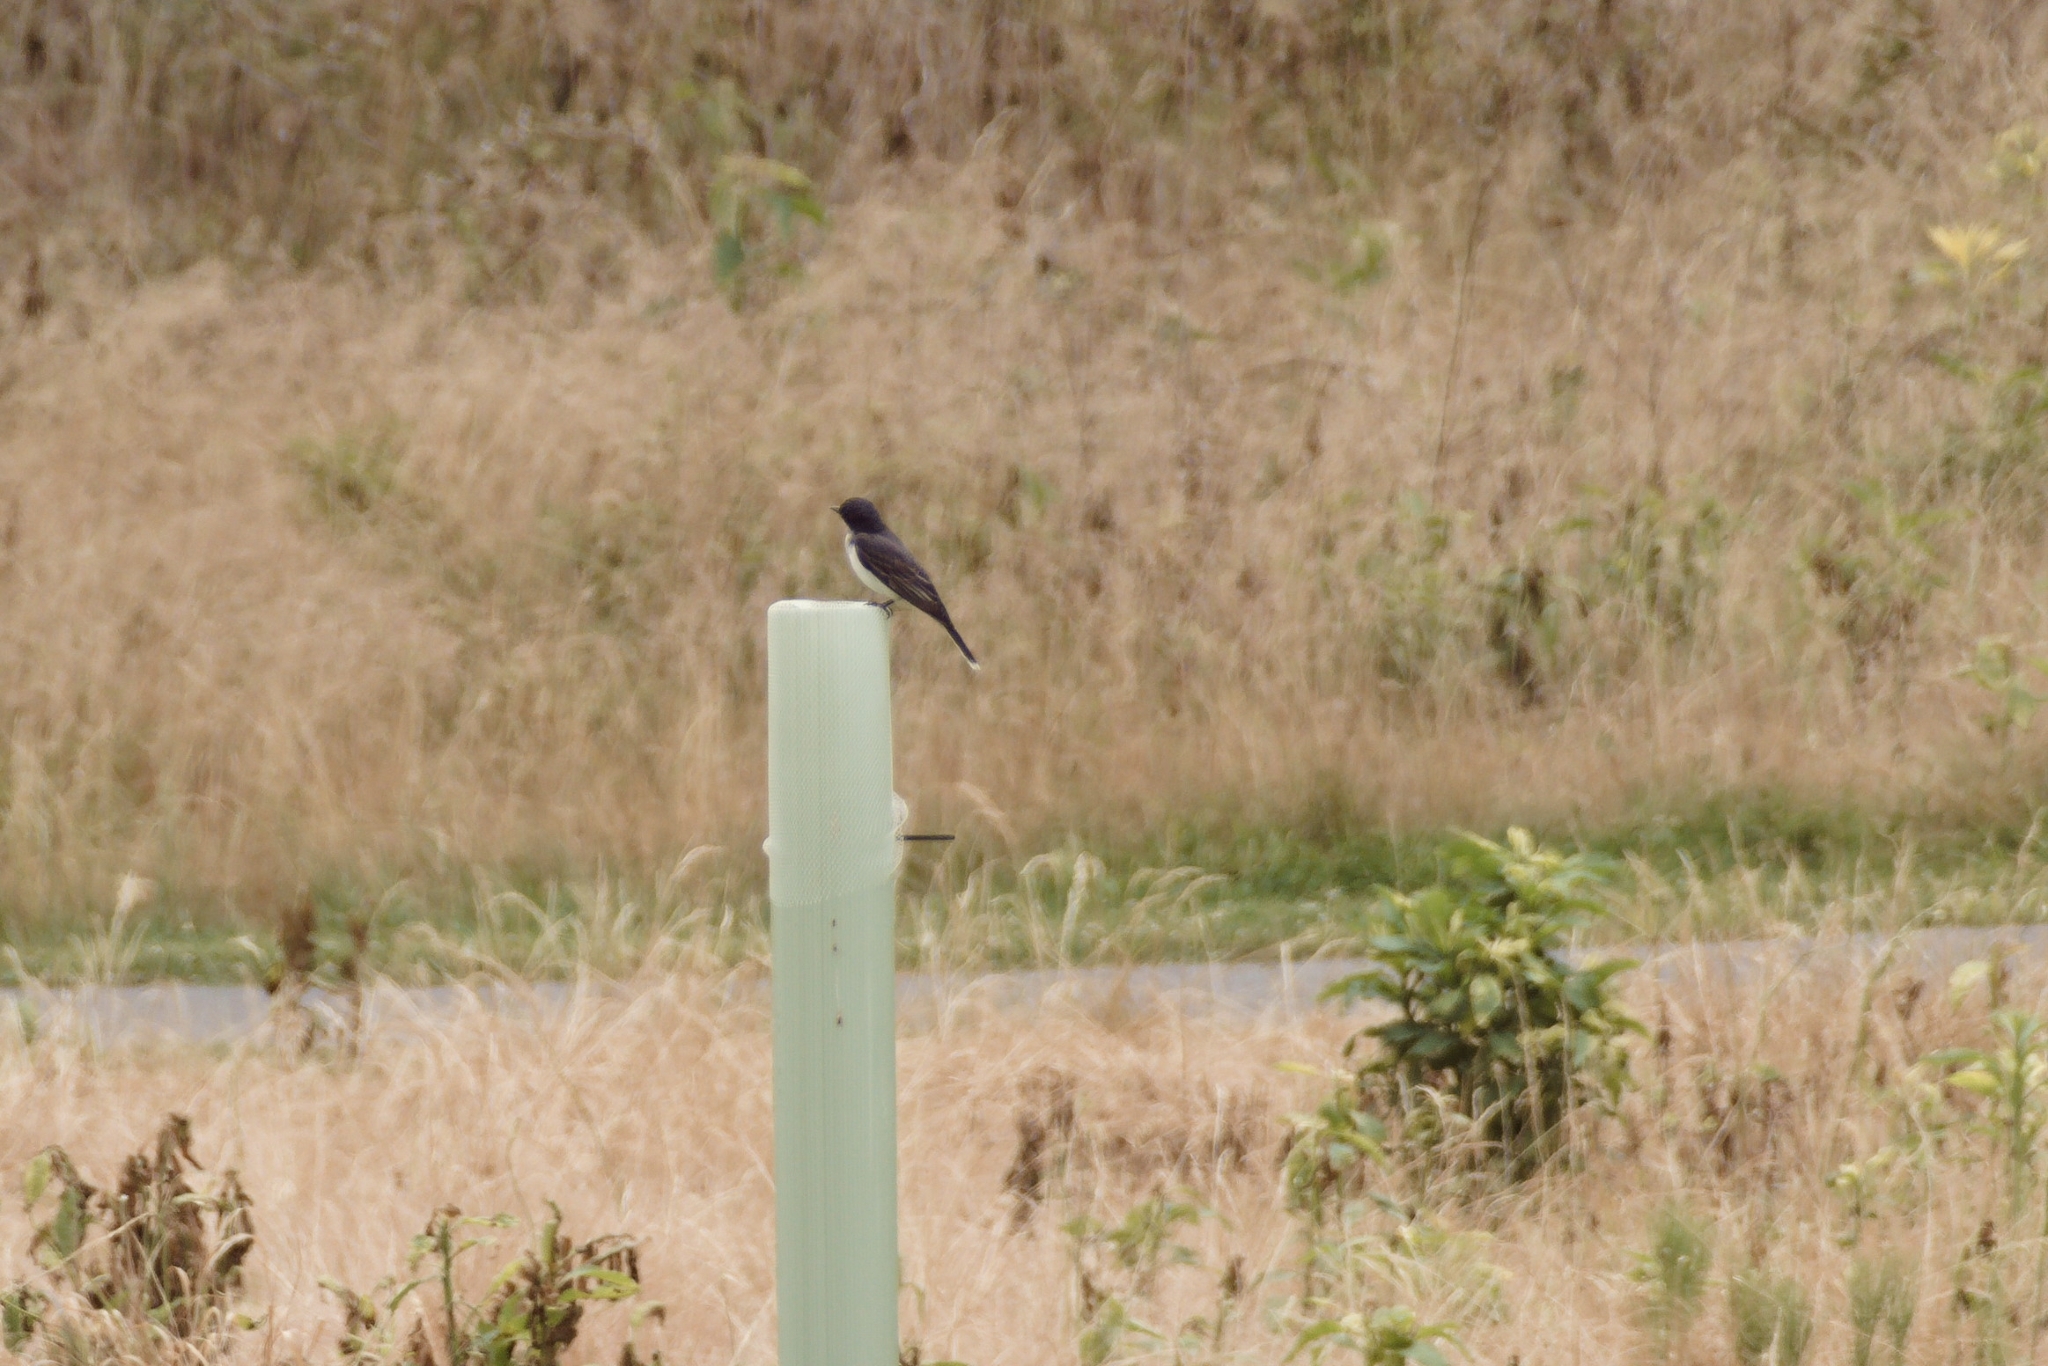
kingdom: Animalia
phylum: Chordata
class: Aves
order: Passeriformes
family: Tyrannidae
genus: Tyrannus
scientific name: Tyrannus tyrannus
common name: Eastern kingbird
